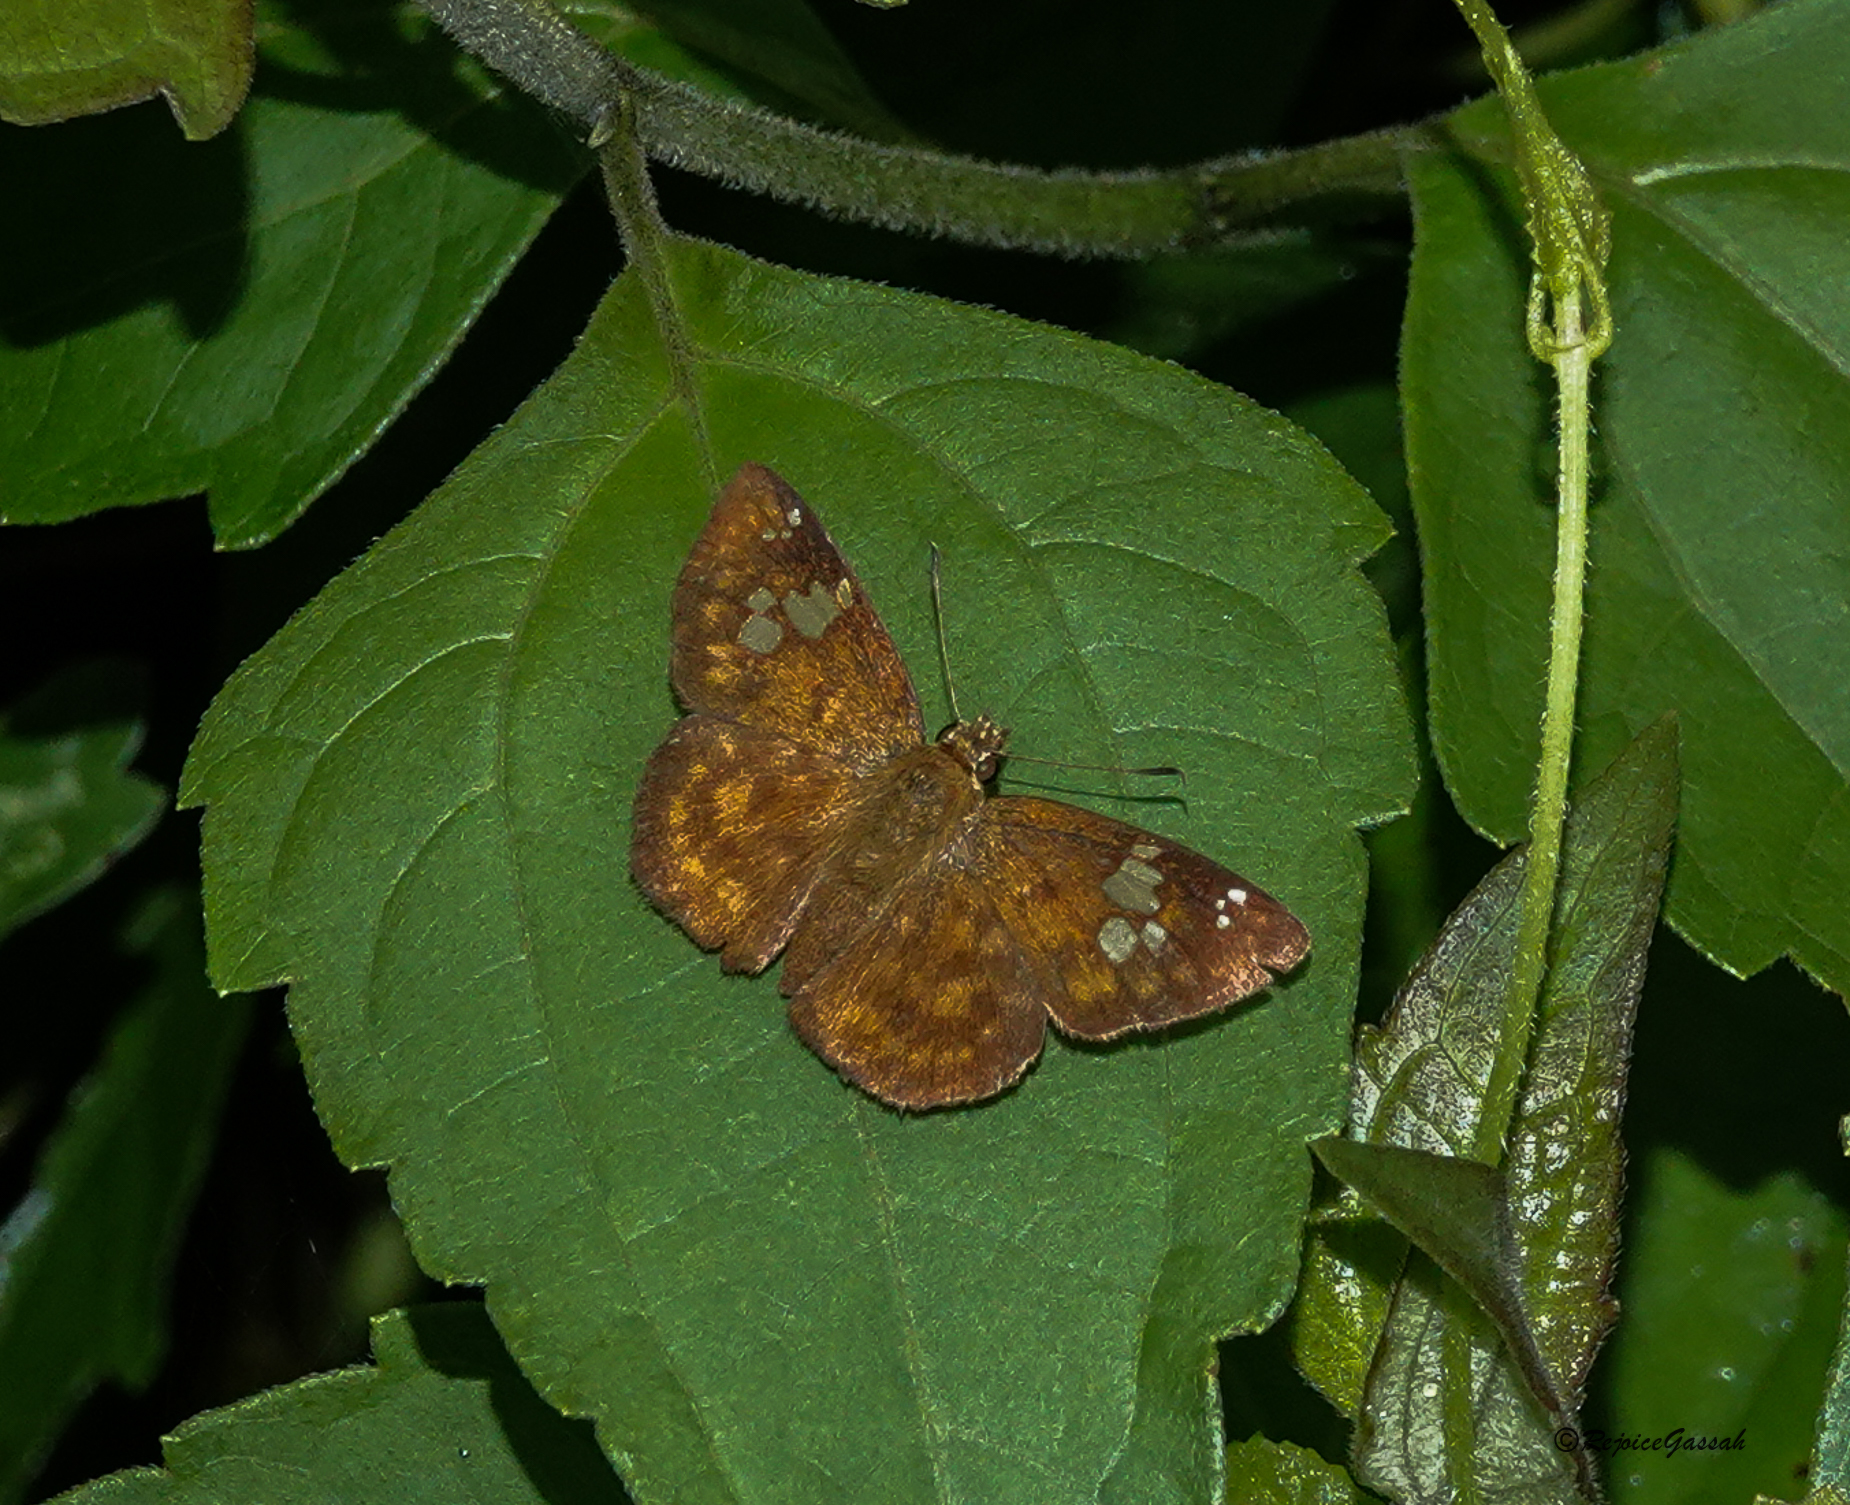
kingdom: Animalia
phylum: Arthropoda
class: Insecta
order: Lepidoptera
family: Hesperiidae
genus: Pseudocoladenia
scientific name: Pseudocoladenia dan
